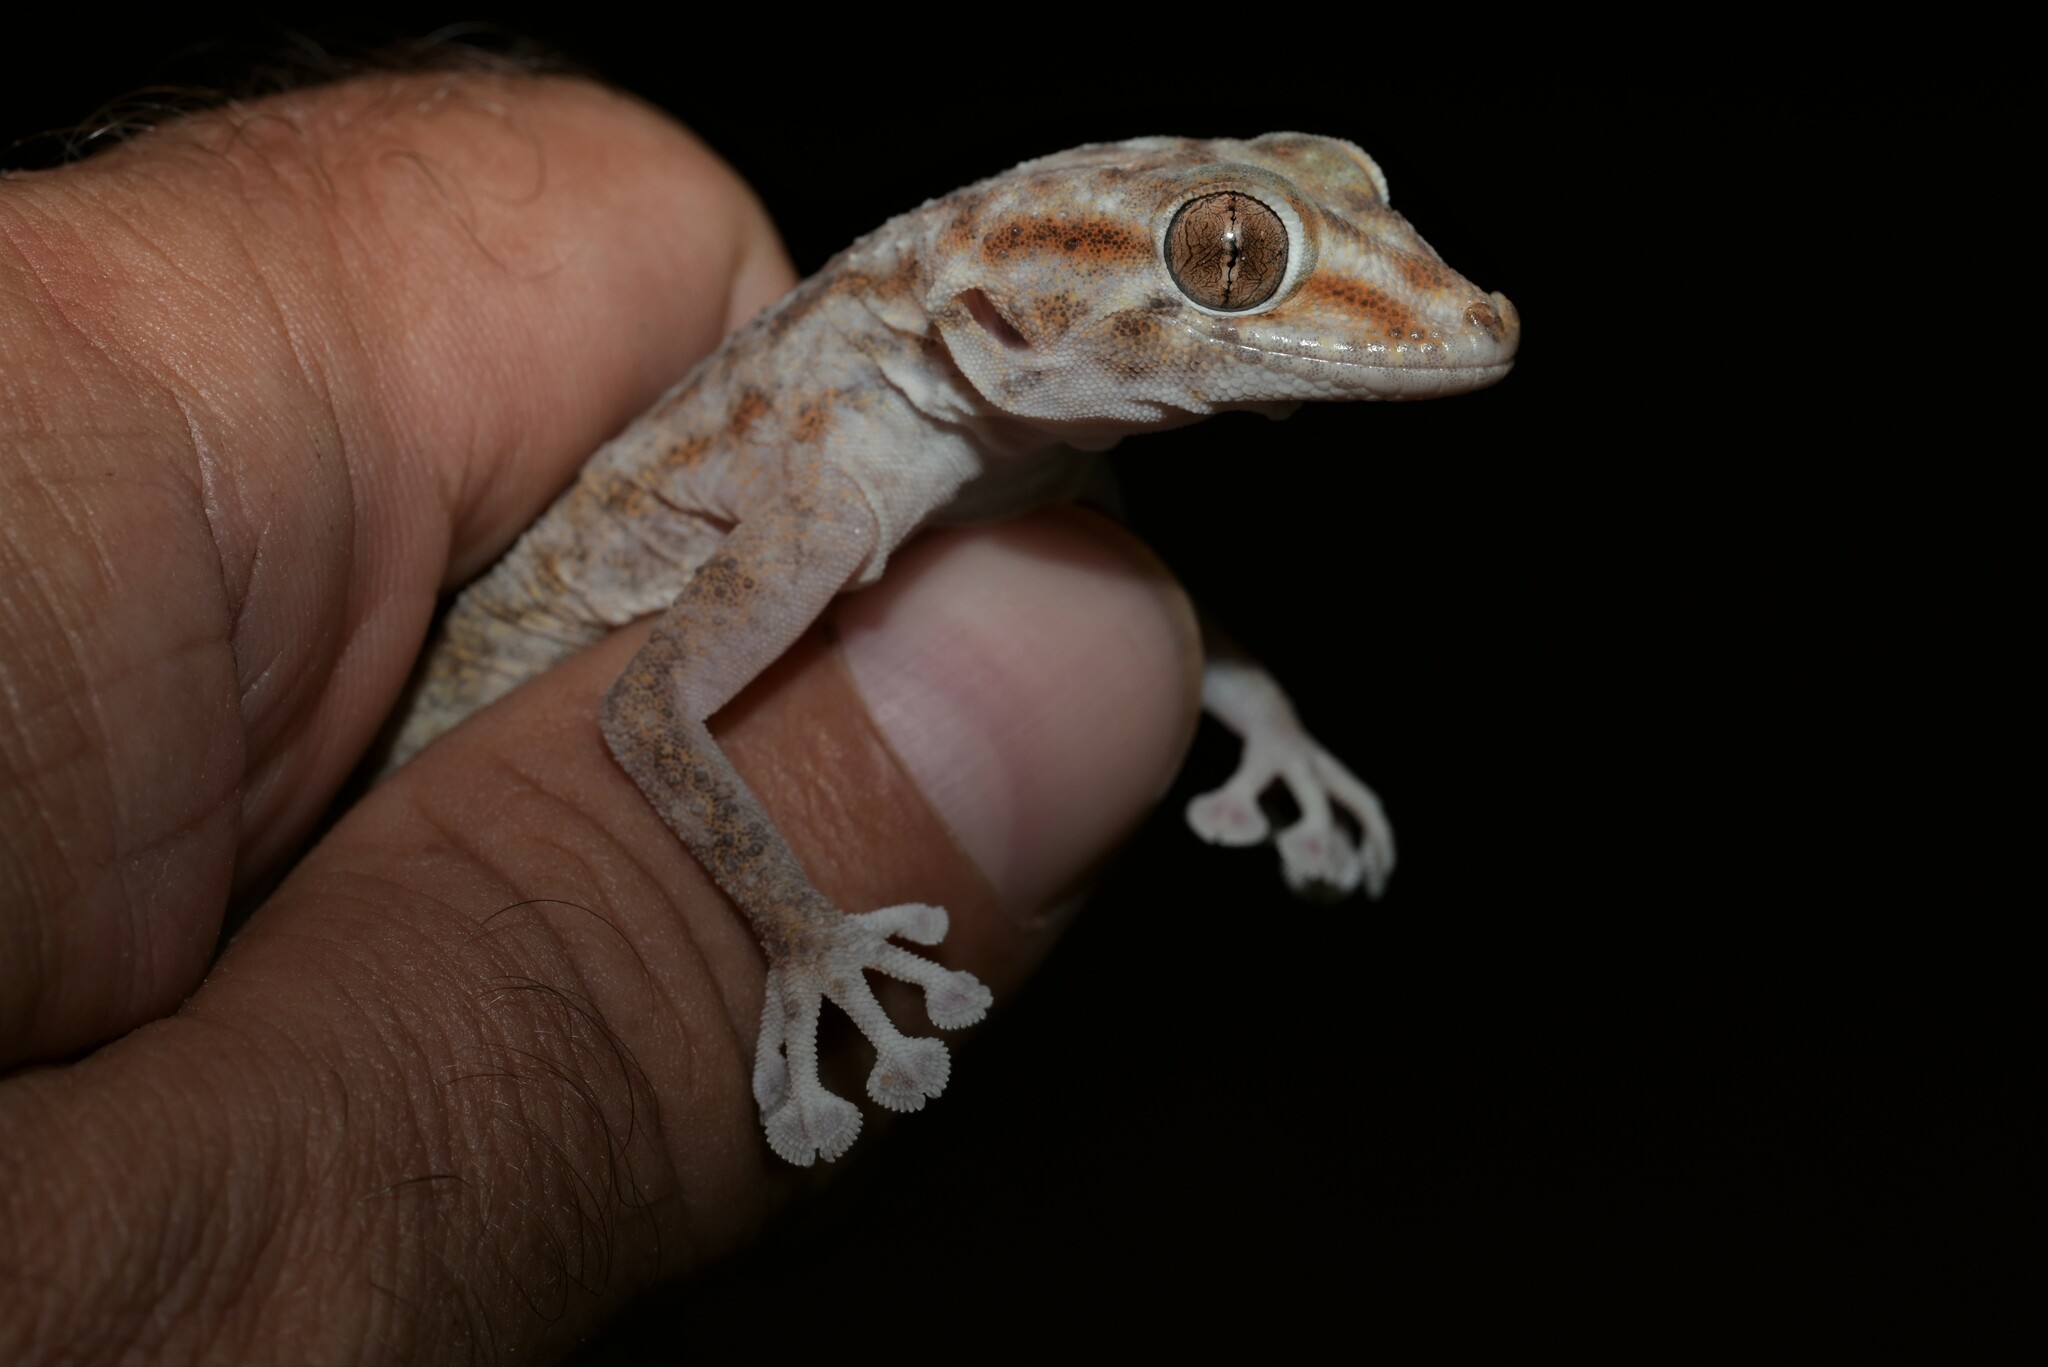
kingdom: Animalia
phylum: Chordata
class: Squamata
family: Phyllodactylidae
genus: Ptyodactylus
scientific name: Ptyodactylus hasselquistii
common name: Hasselquist’s fan-footed gecko
